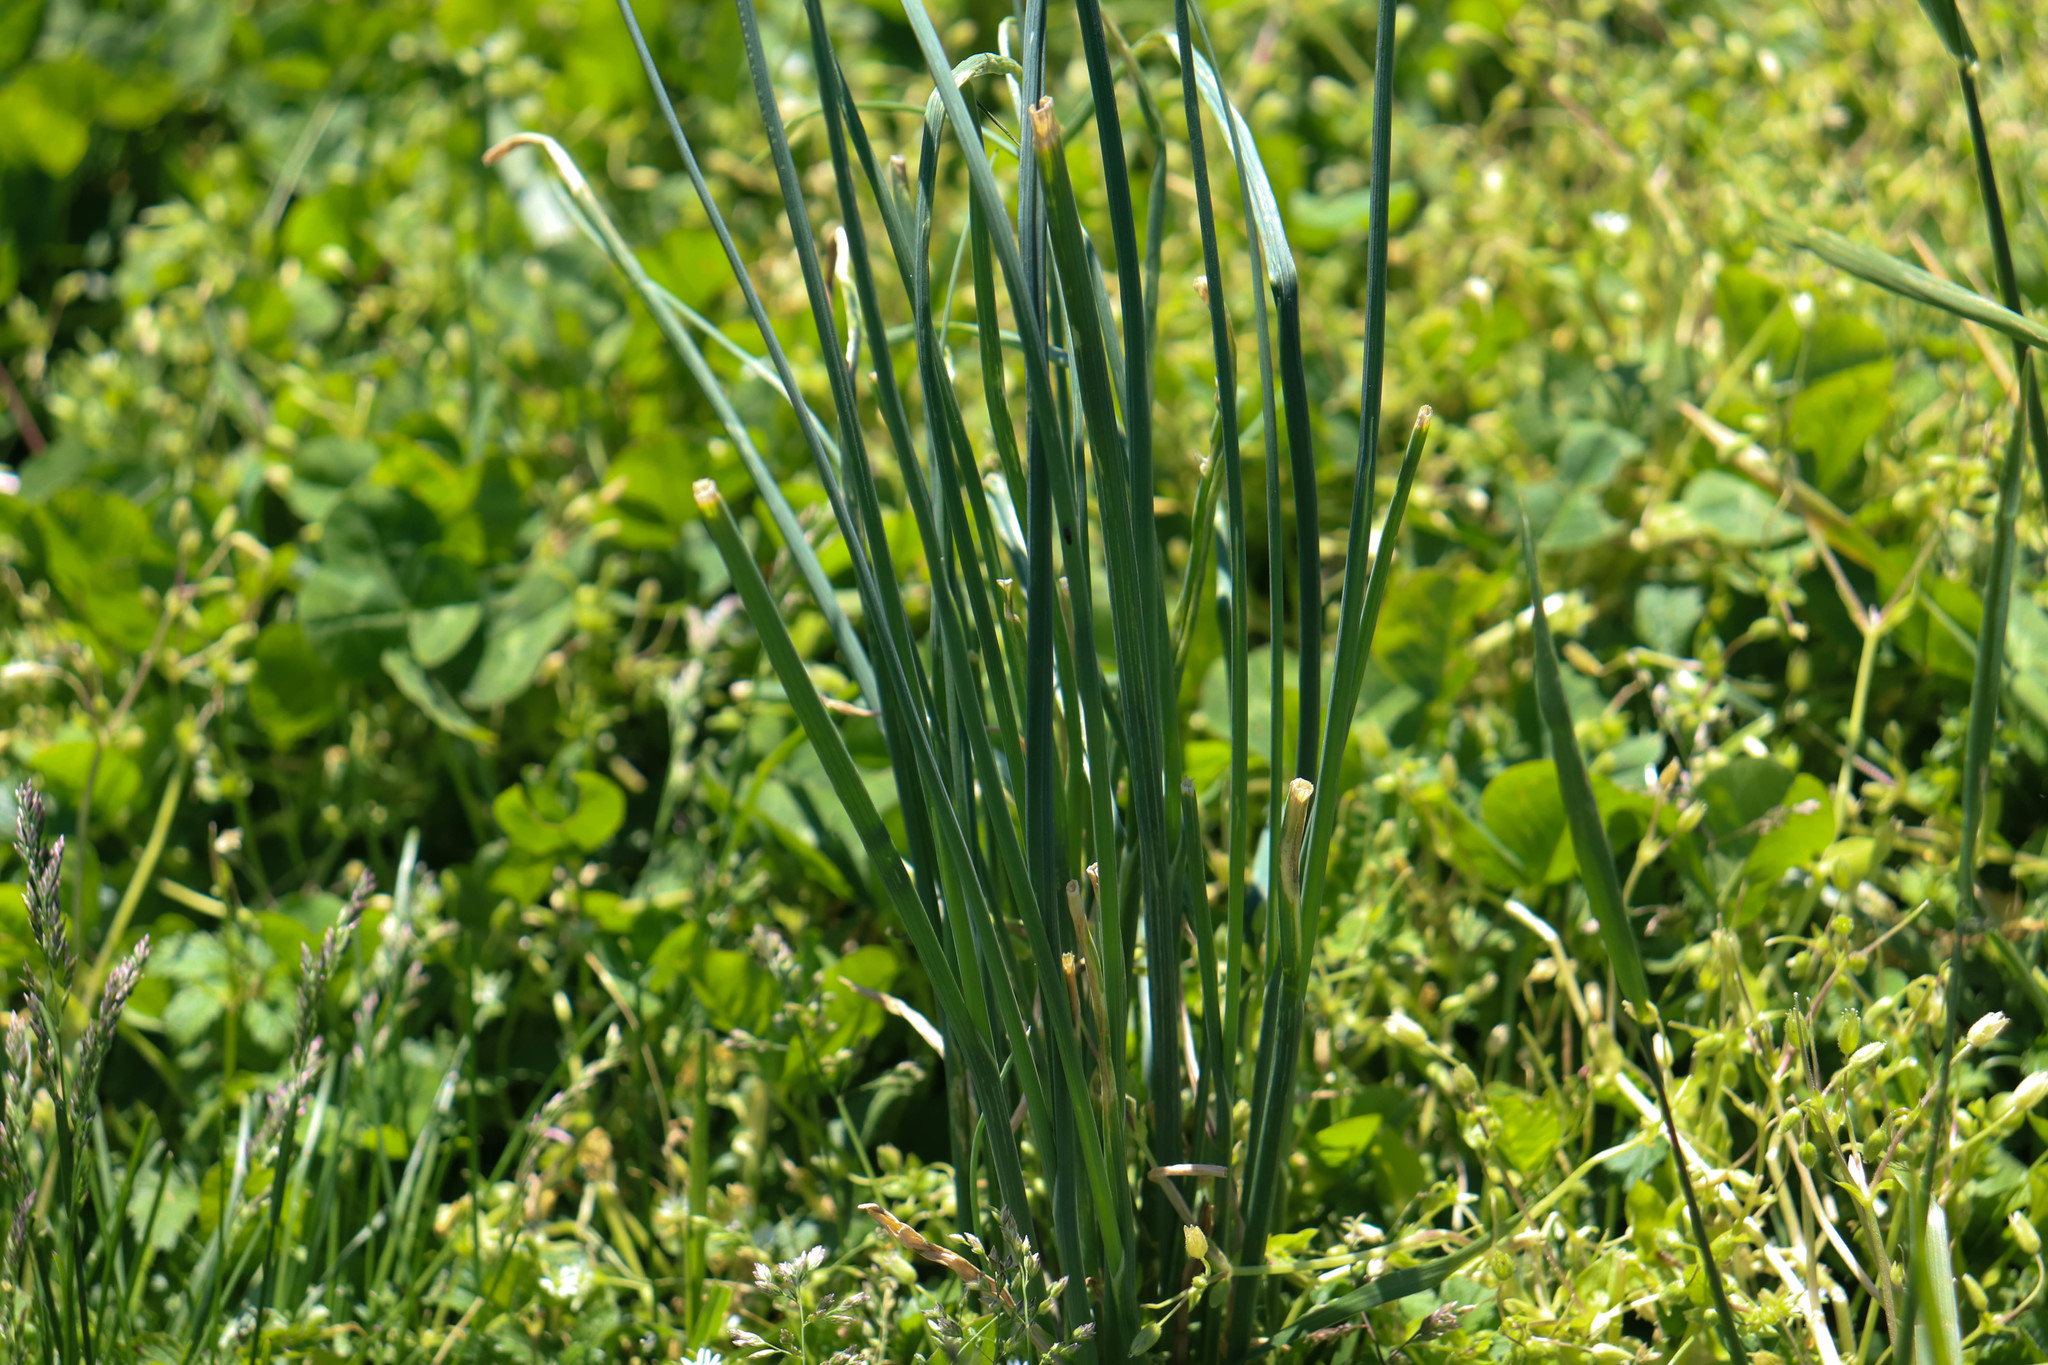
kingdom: Plantae
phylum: Tracheophyta
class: Liliopsida
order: Asparagales
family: Amaryllidaceae
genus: Allium
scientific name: Allium vineale
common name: Crow garlic
